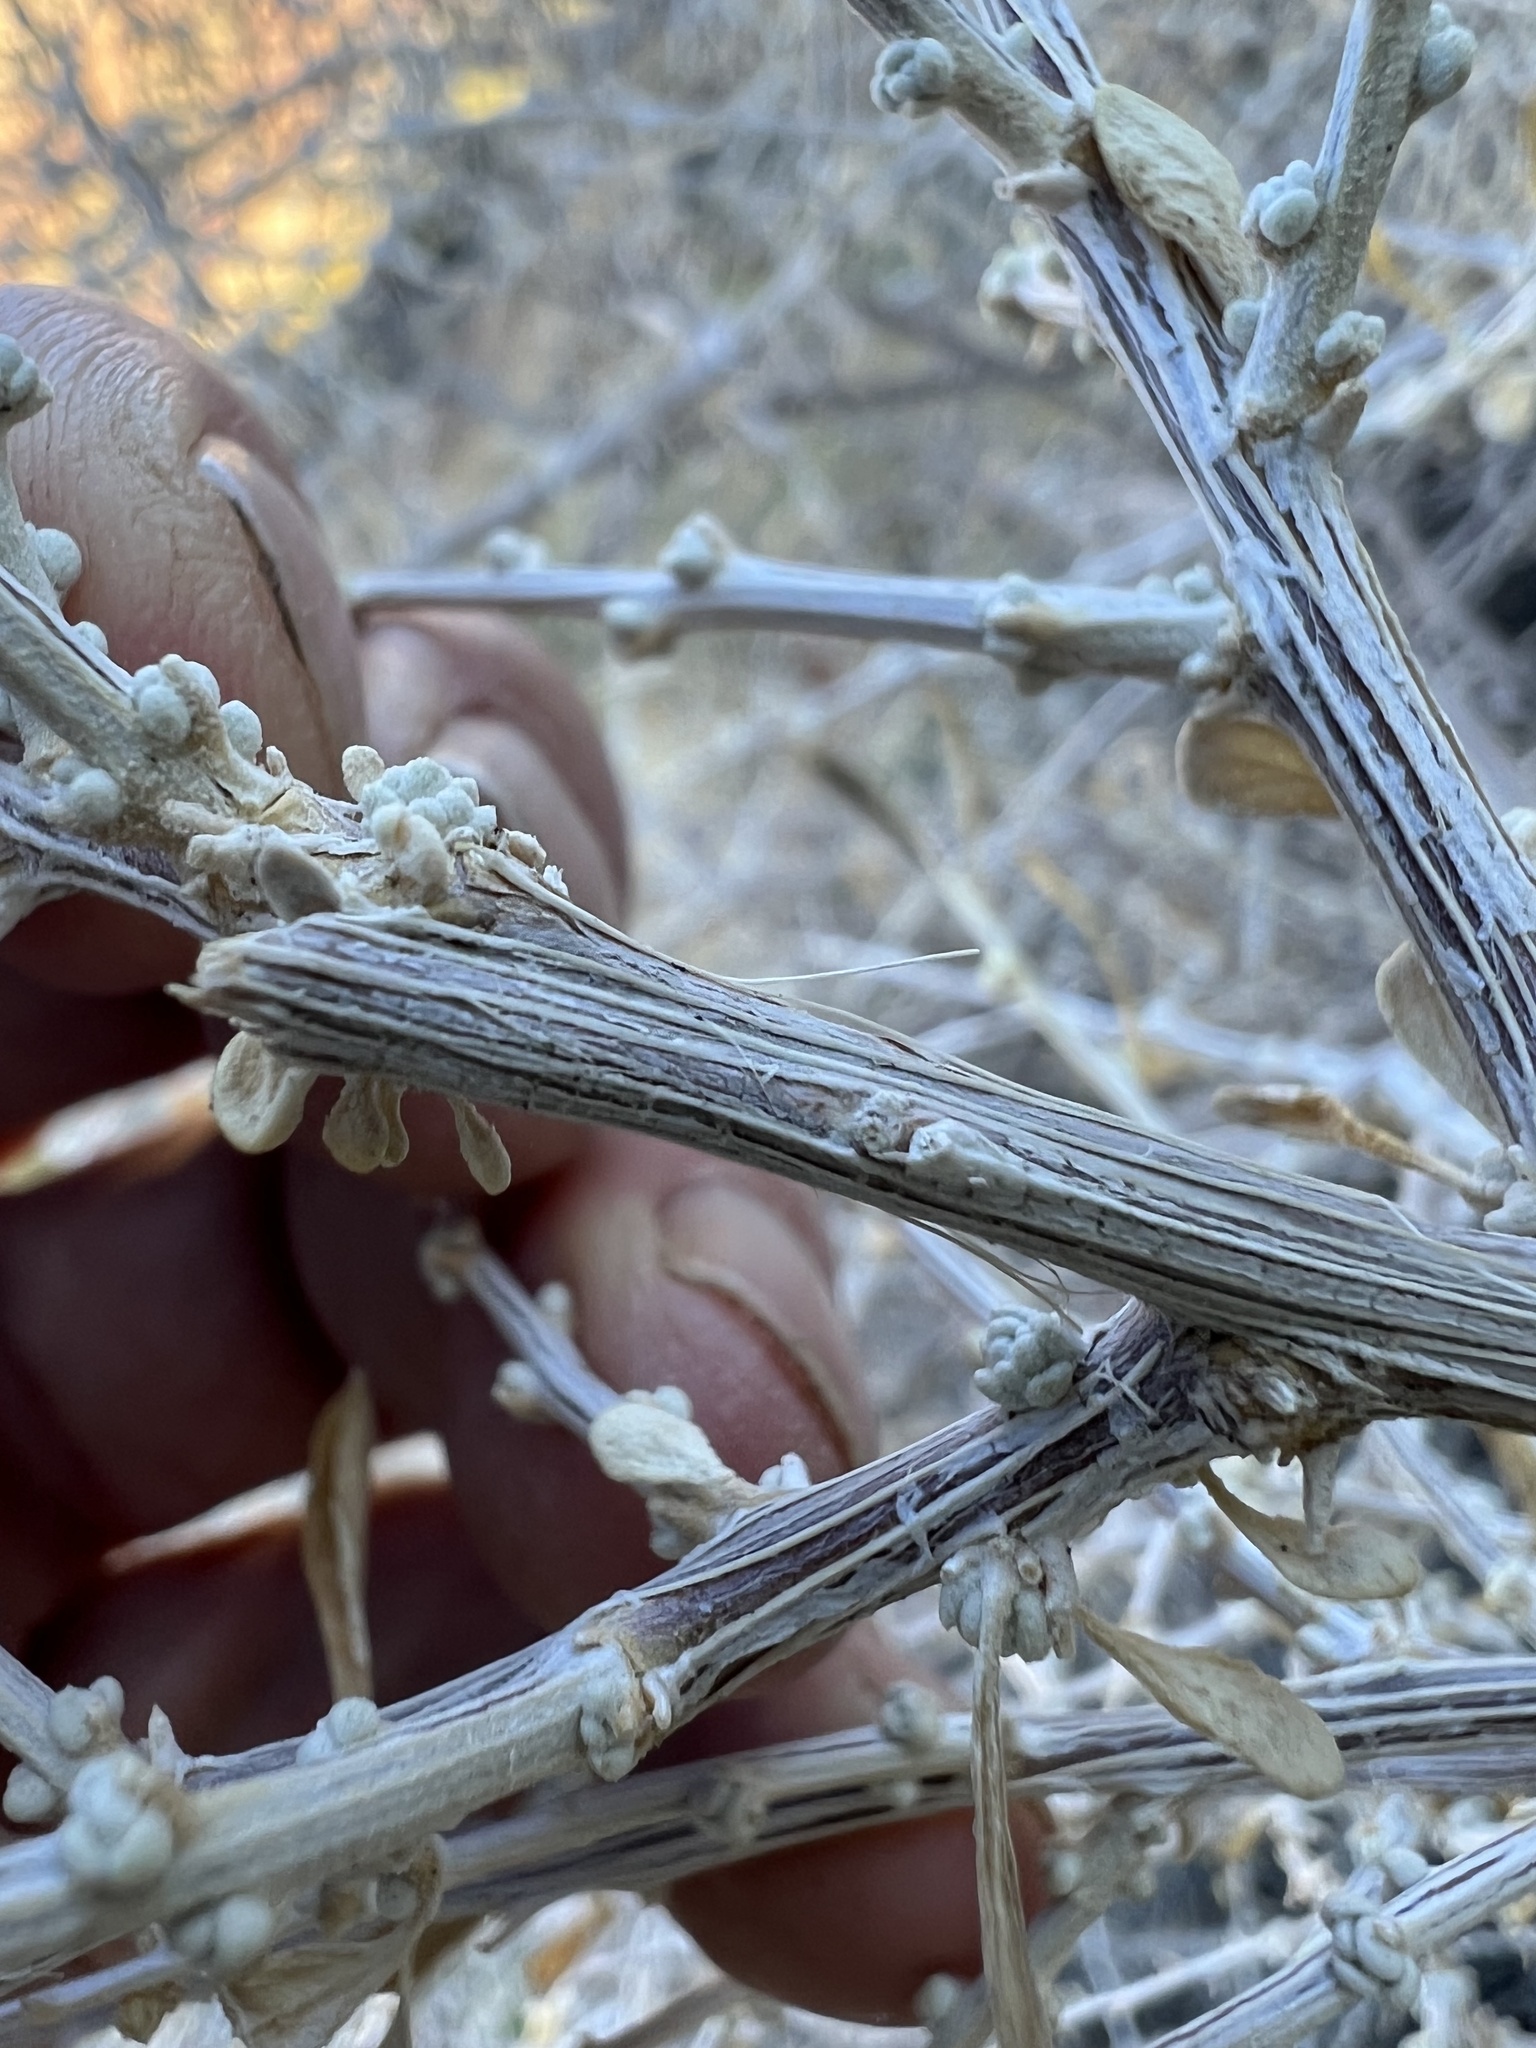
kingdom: Plantae
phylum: Tracheophyta
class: Magnoliopsida
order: Caryophyllales
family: Amaranthaceae
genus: Grayia
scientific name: Grayia spinosa
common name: Spiny hopsage
